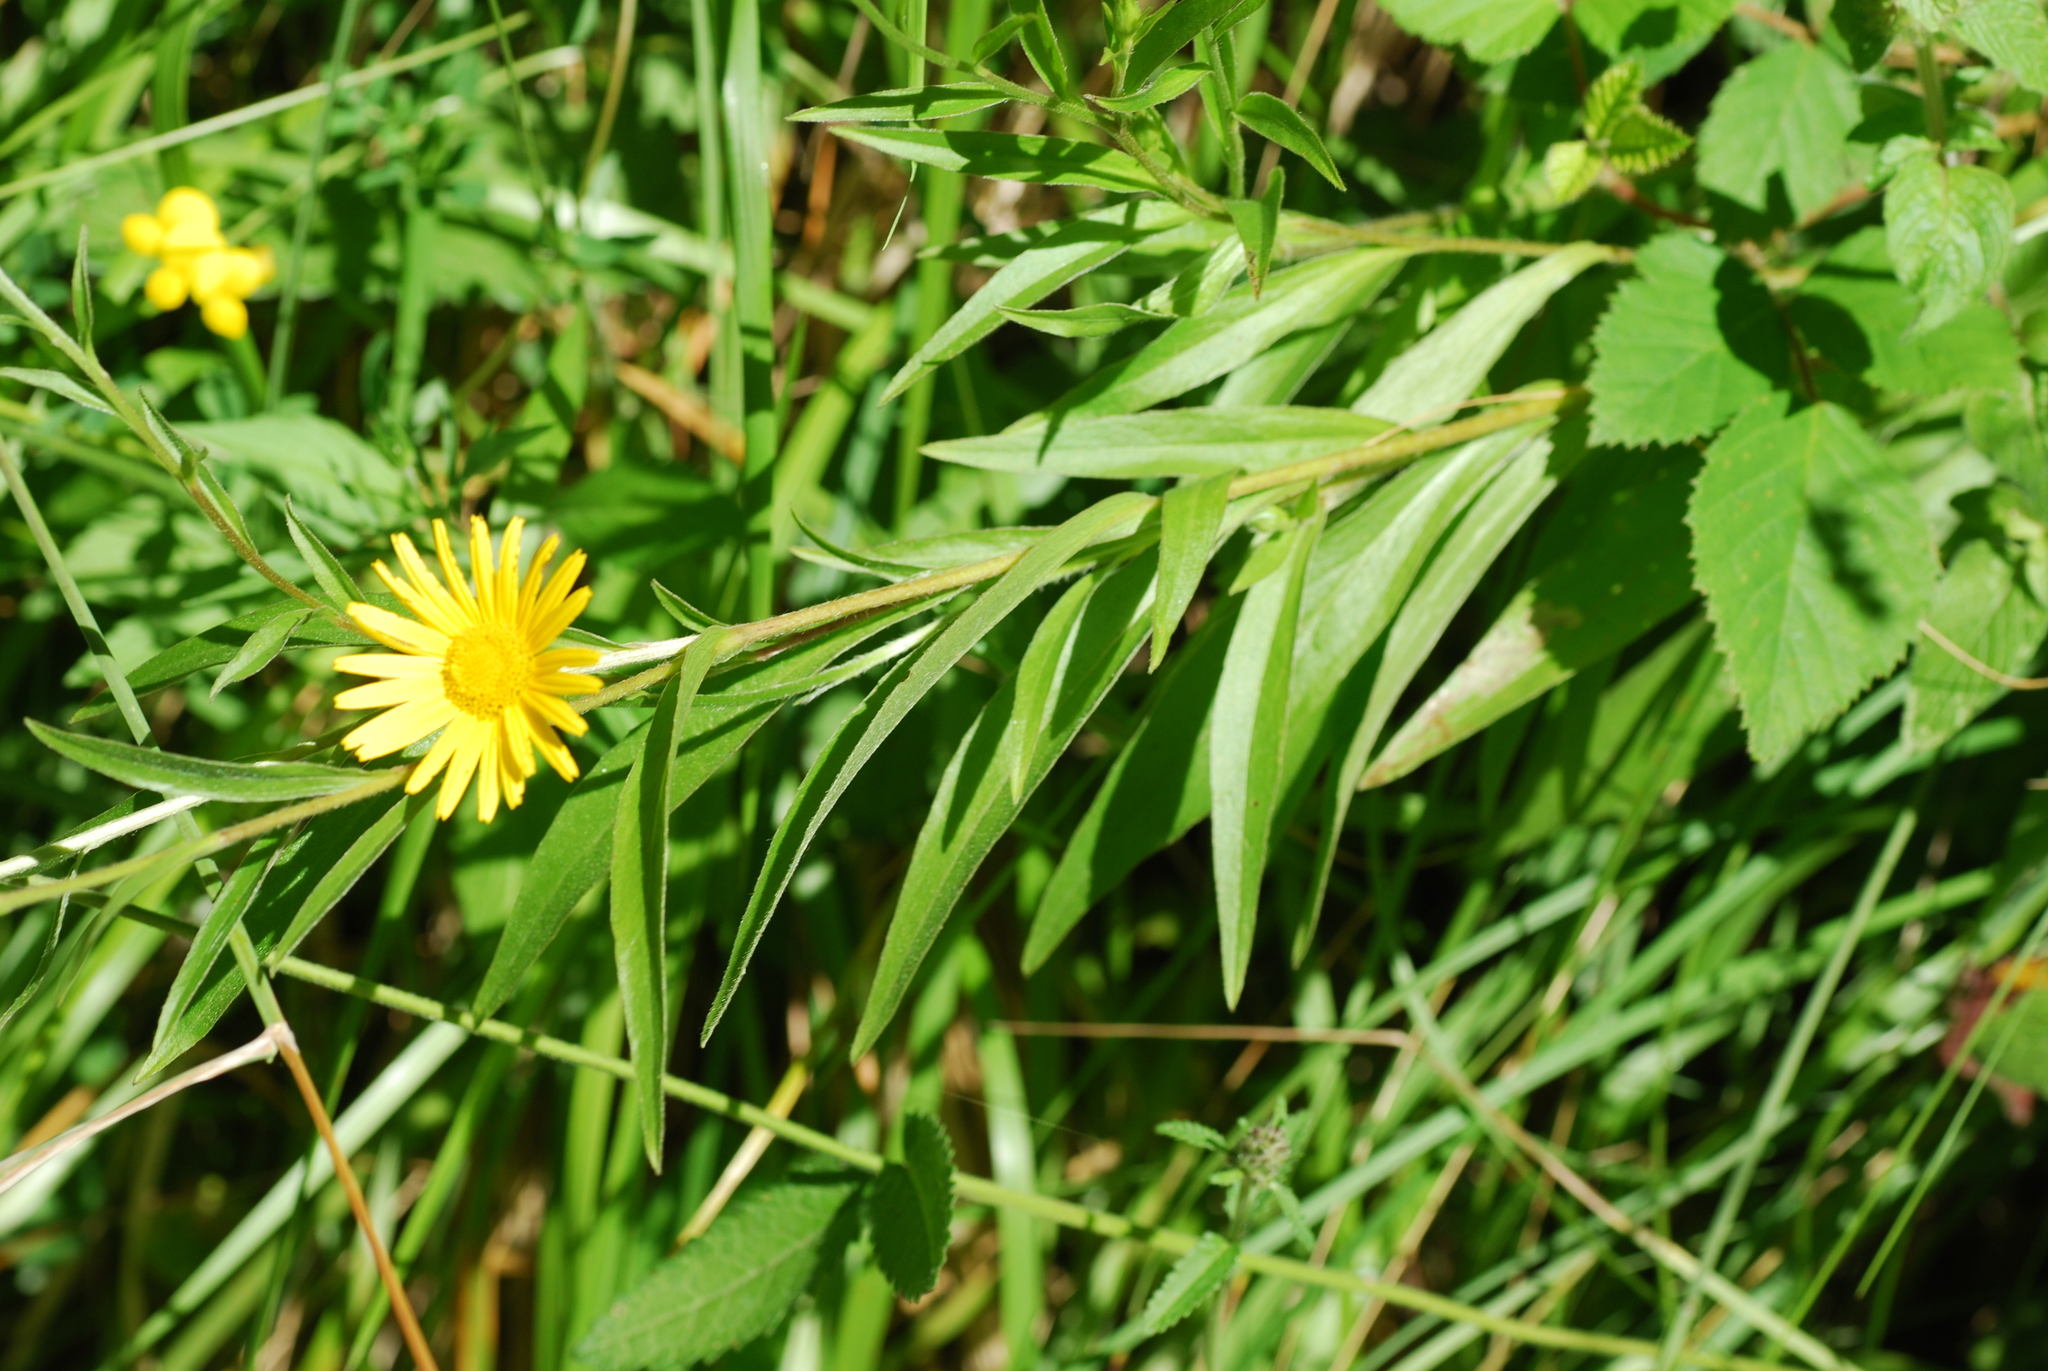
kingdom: Plantae
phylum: Tracheophyta
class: Magnoliopsida
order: Asterales
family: Asteraceae
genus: Buphthalmum
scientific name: Buphthalmum salicifolium
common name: Willow-leaved yellow-oxeye
